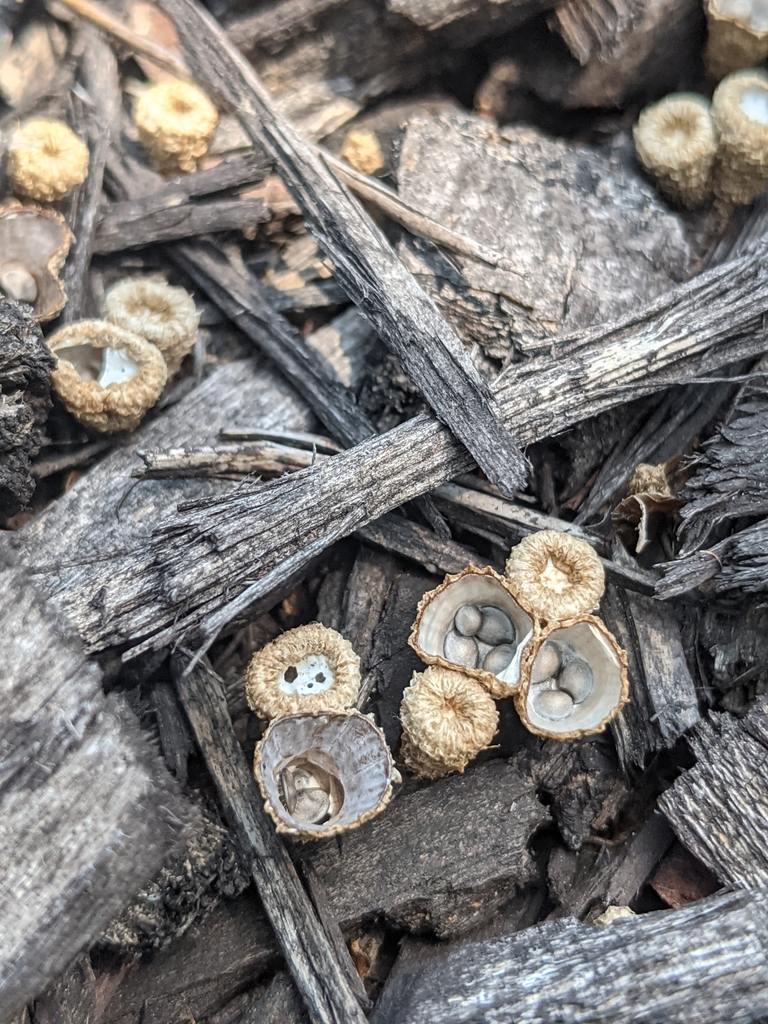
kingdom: Fungi
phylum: Basidiomycota
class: Agaricomycetes
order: Agaricales
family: Agaricaceae
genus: Cyathus
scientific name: Cyathus striatus
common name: Fluted bird's nest
